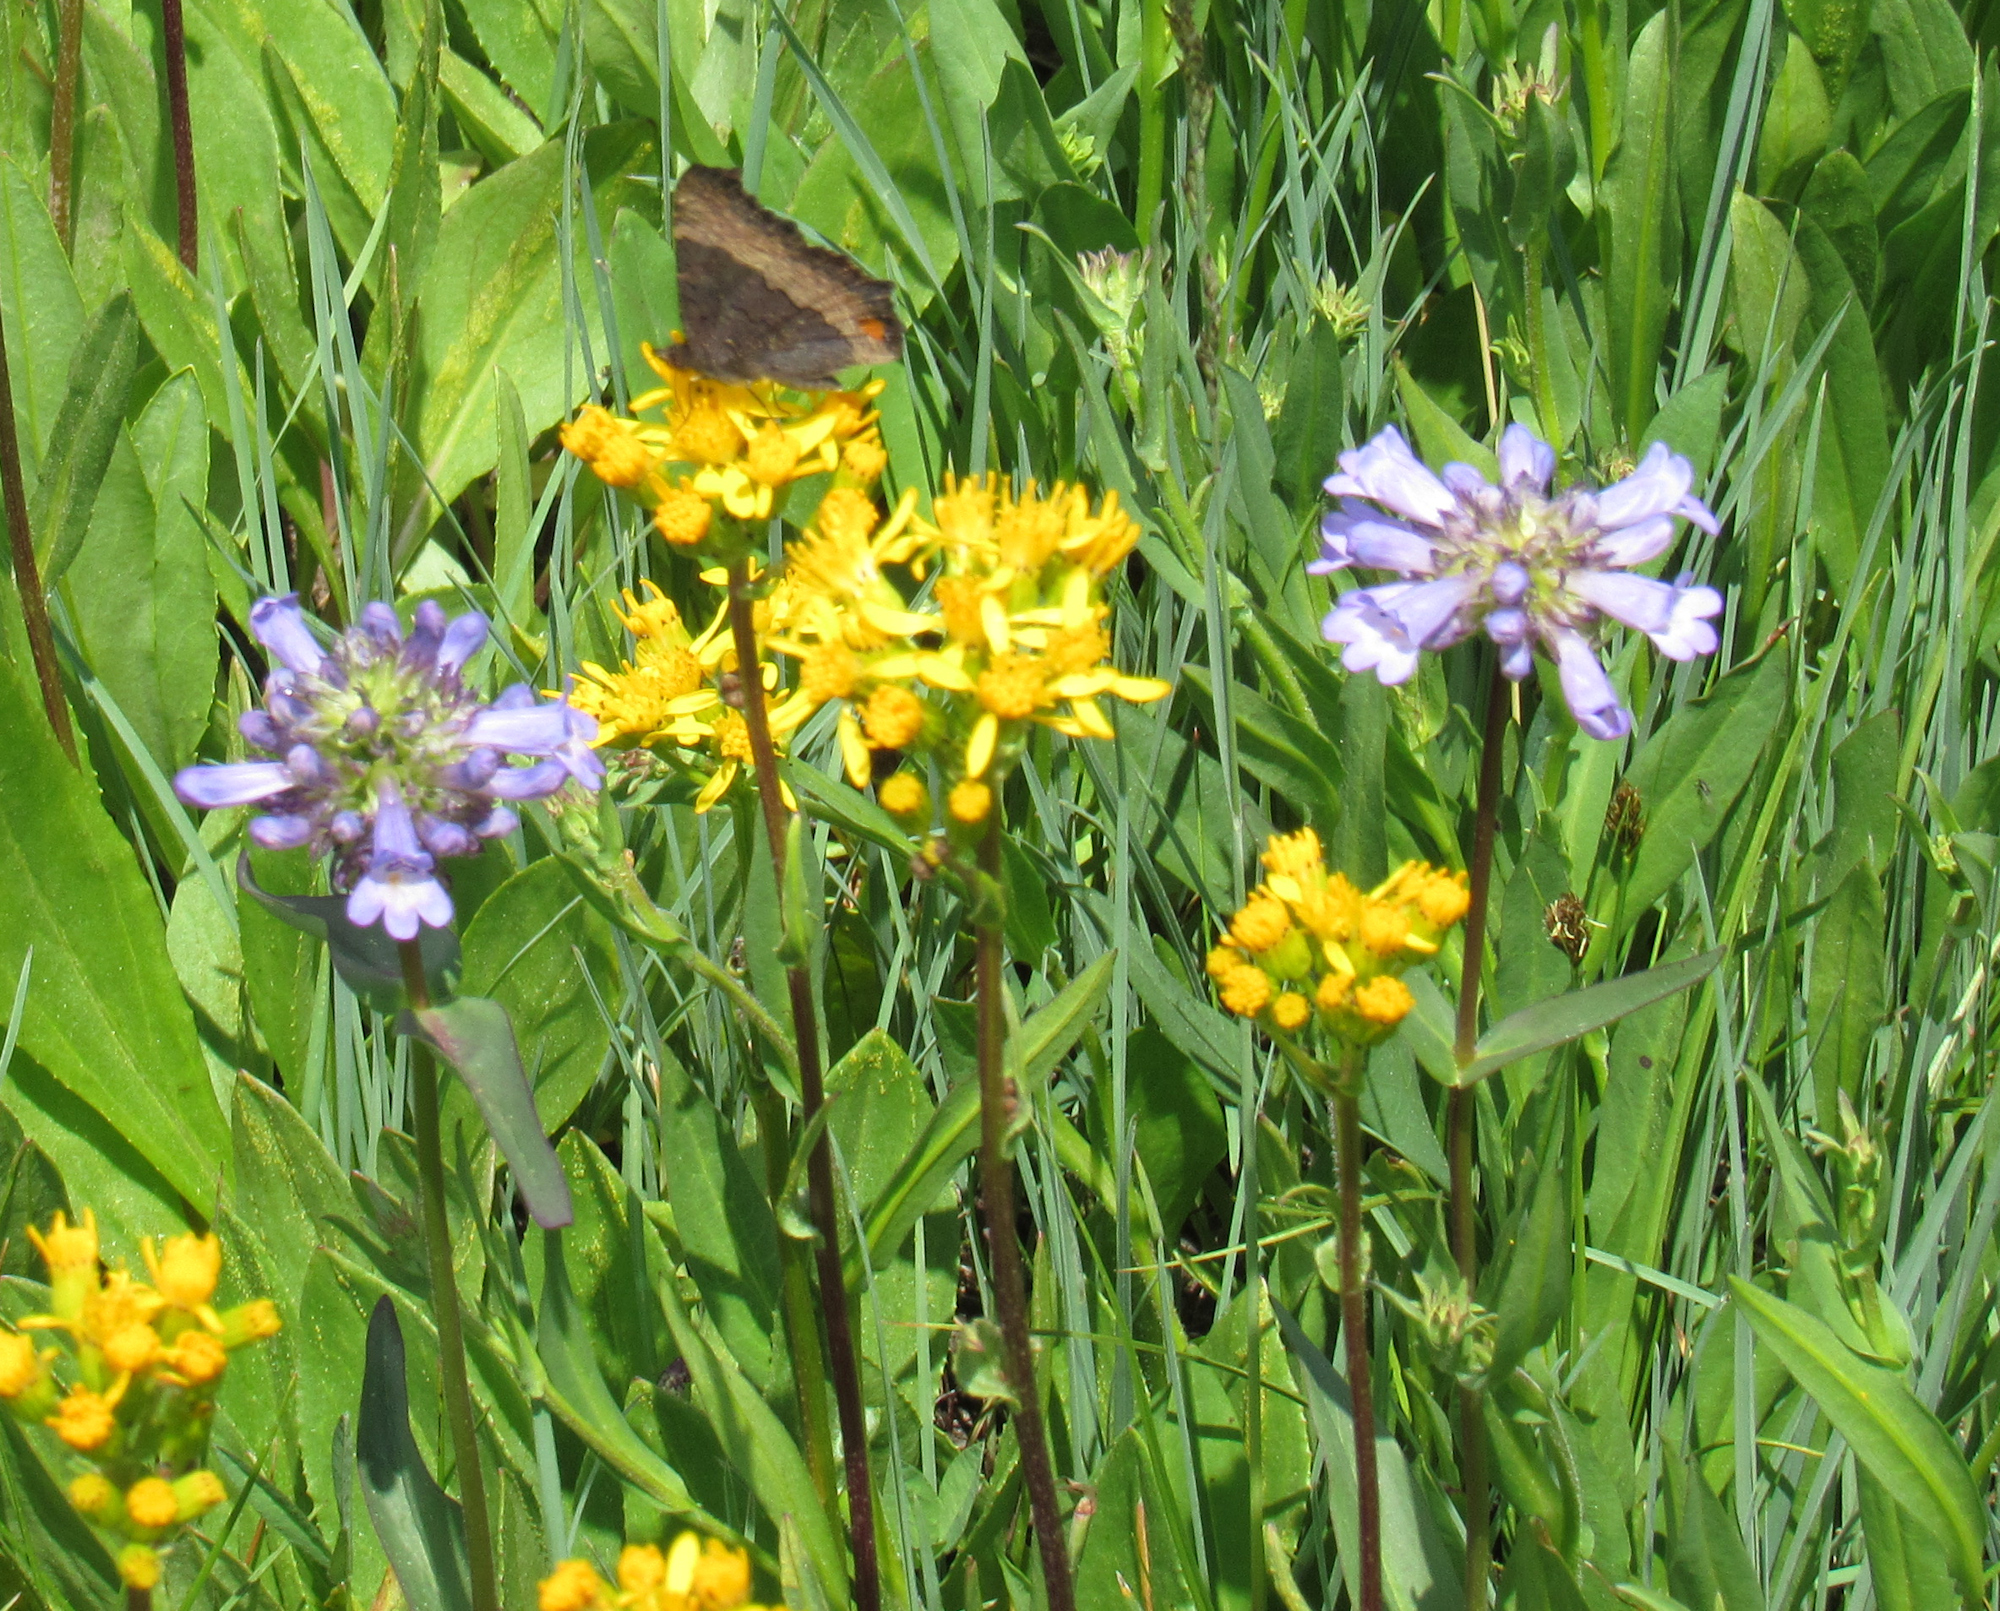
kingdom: Plantae
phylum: Tracheophyta
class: Magnoliopsida
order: Lamiales
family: Plantaginaceae
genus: Penstemon
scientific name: Penstemon globosus
